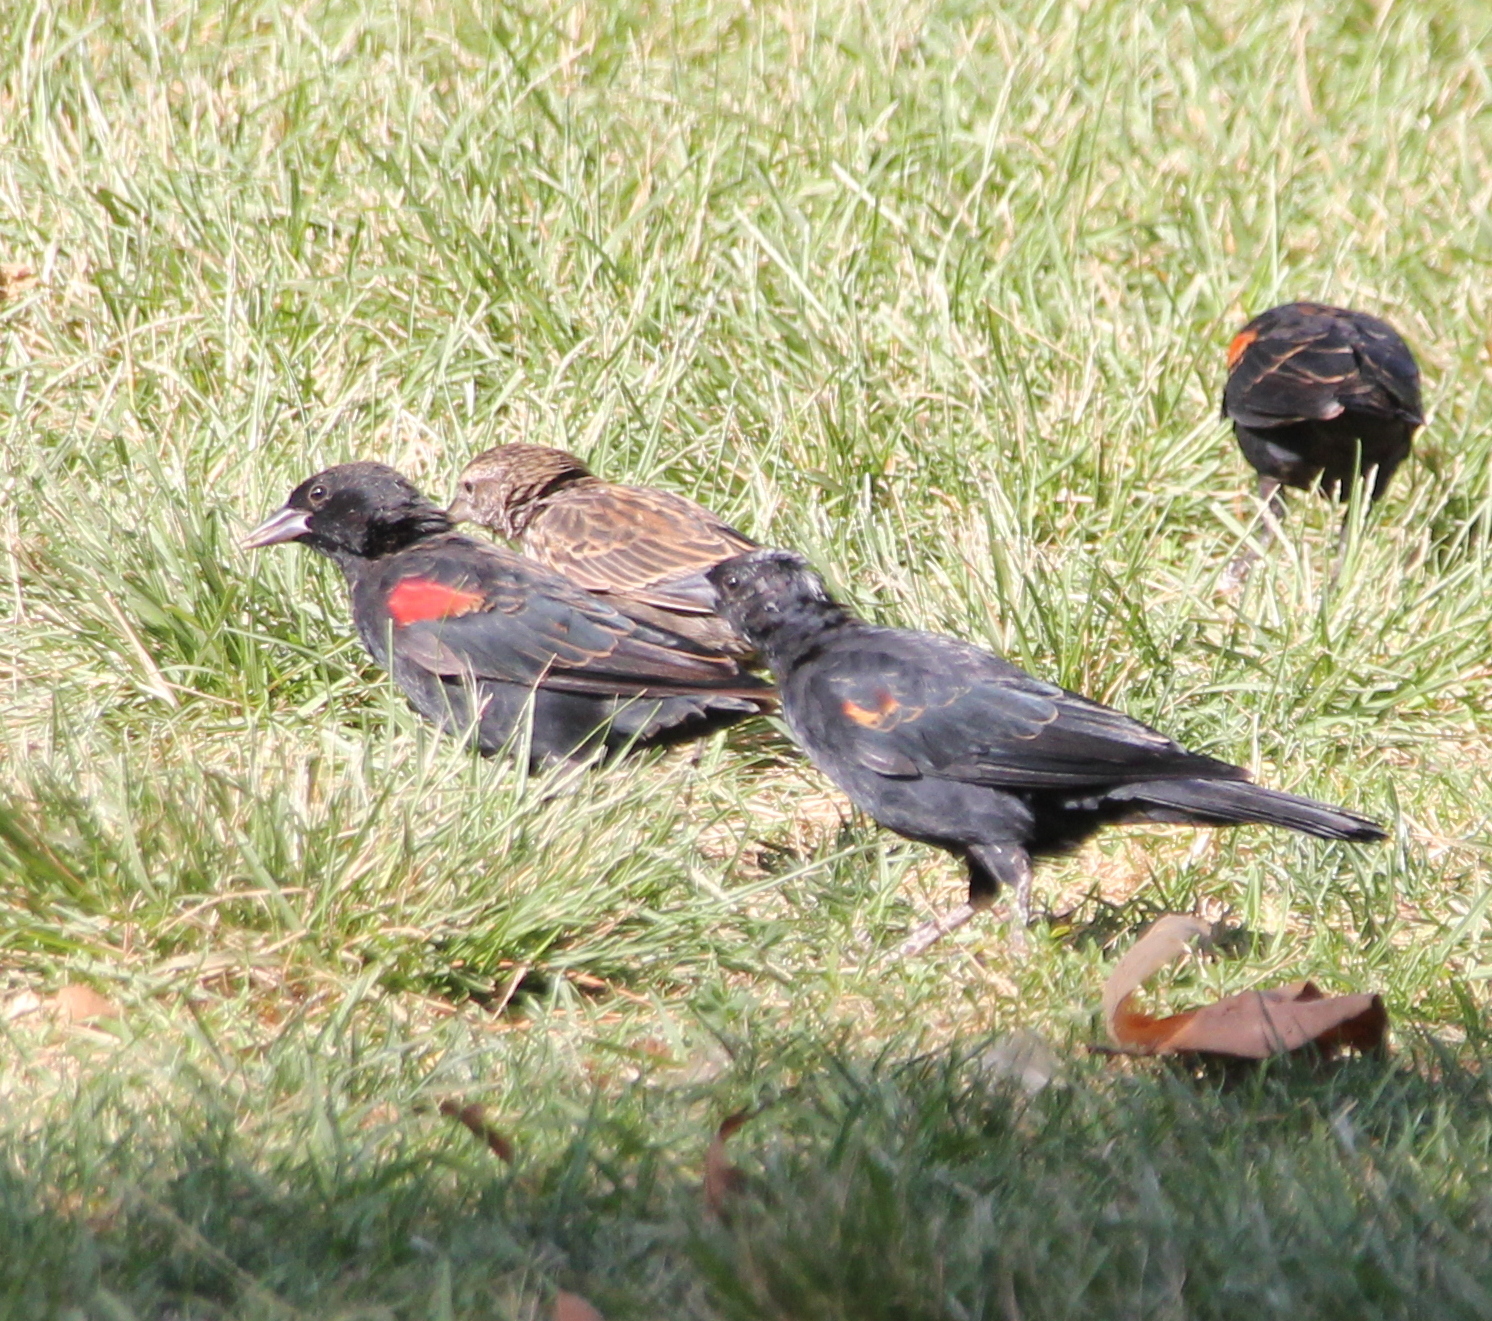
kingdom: Animalia
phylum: Chordata
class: Aves
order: Passeriformes
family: Icteridae
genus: Agelaius
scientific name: Agelaius phoeniceus
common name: Red-winged blackbird
